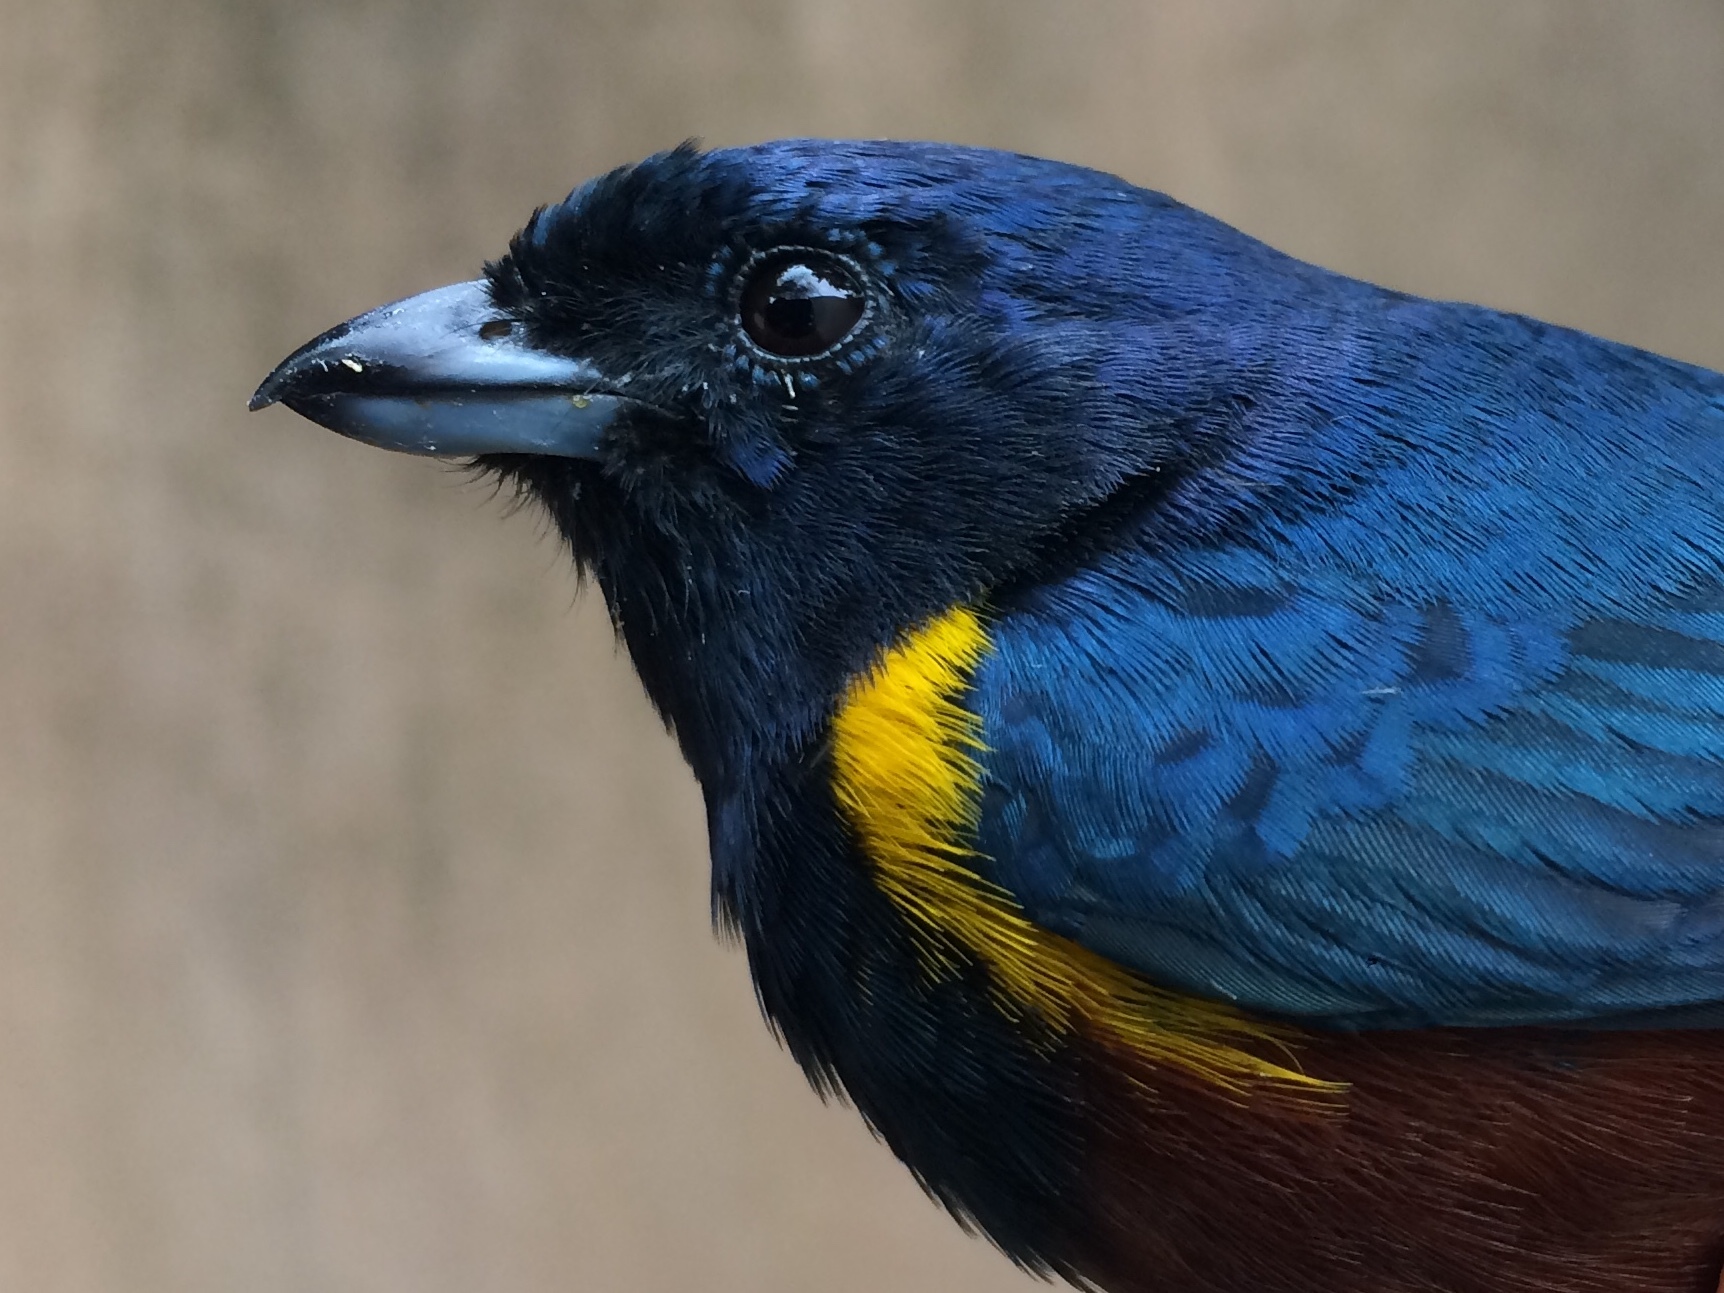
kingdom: Animalia
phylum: Chordata
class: Aves
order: Passeriformes
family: Fringillidae
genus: Euphonia
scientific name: Euphonia pectoralis
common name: Chestnut-bellied euphonia
